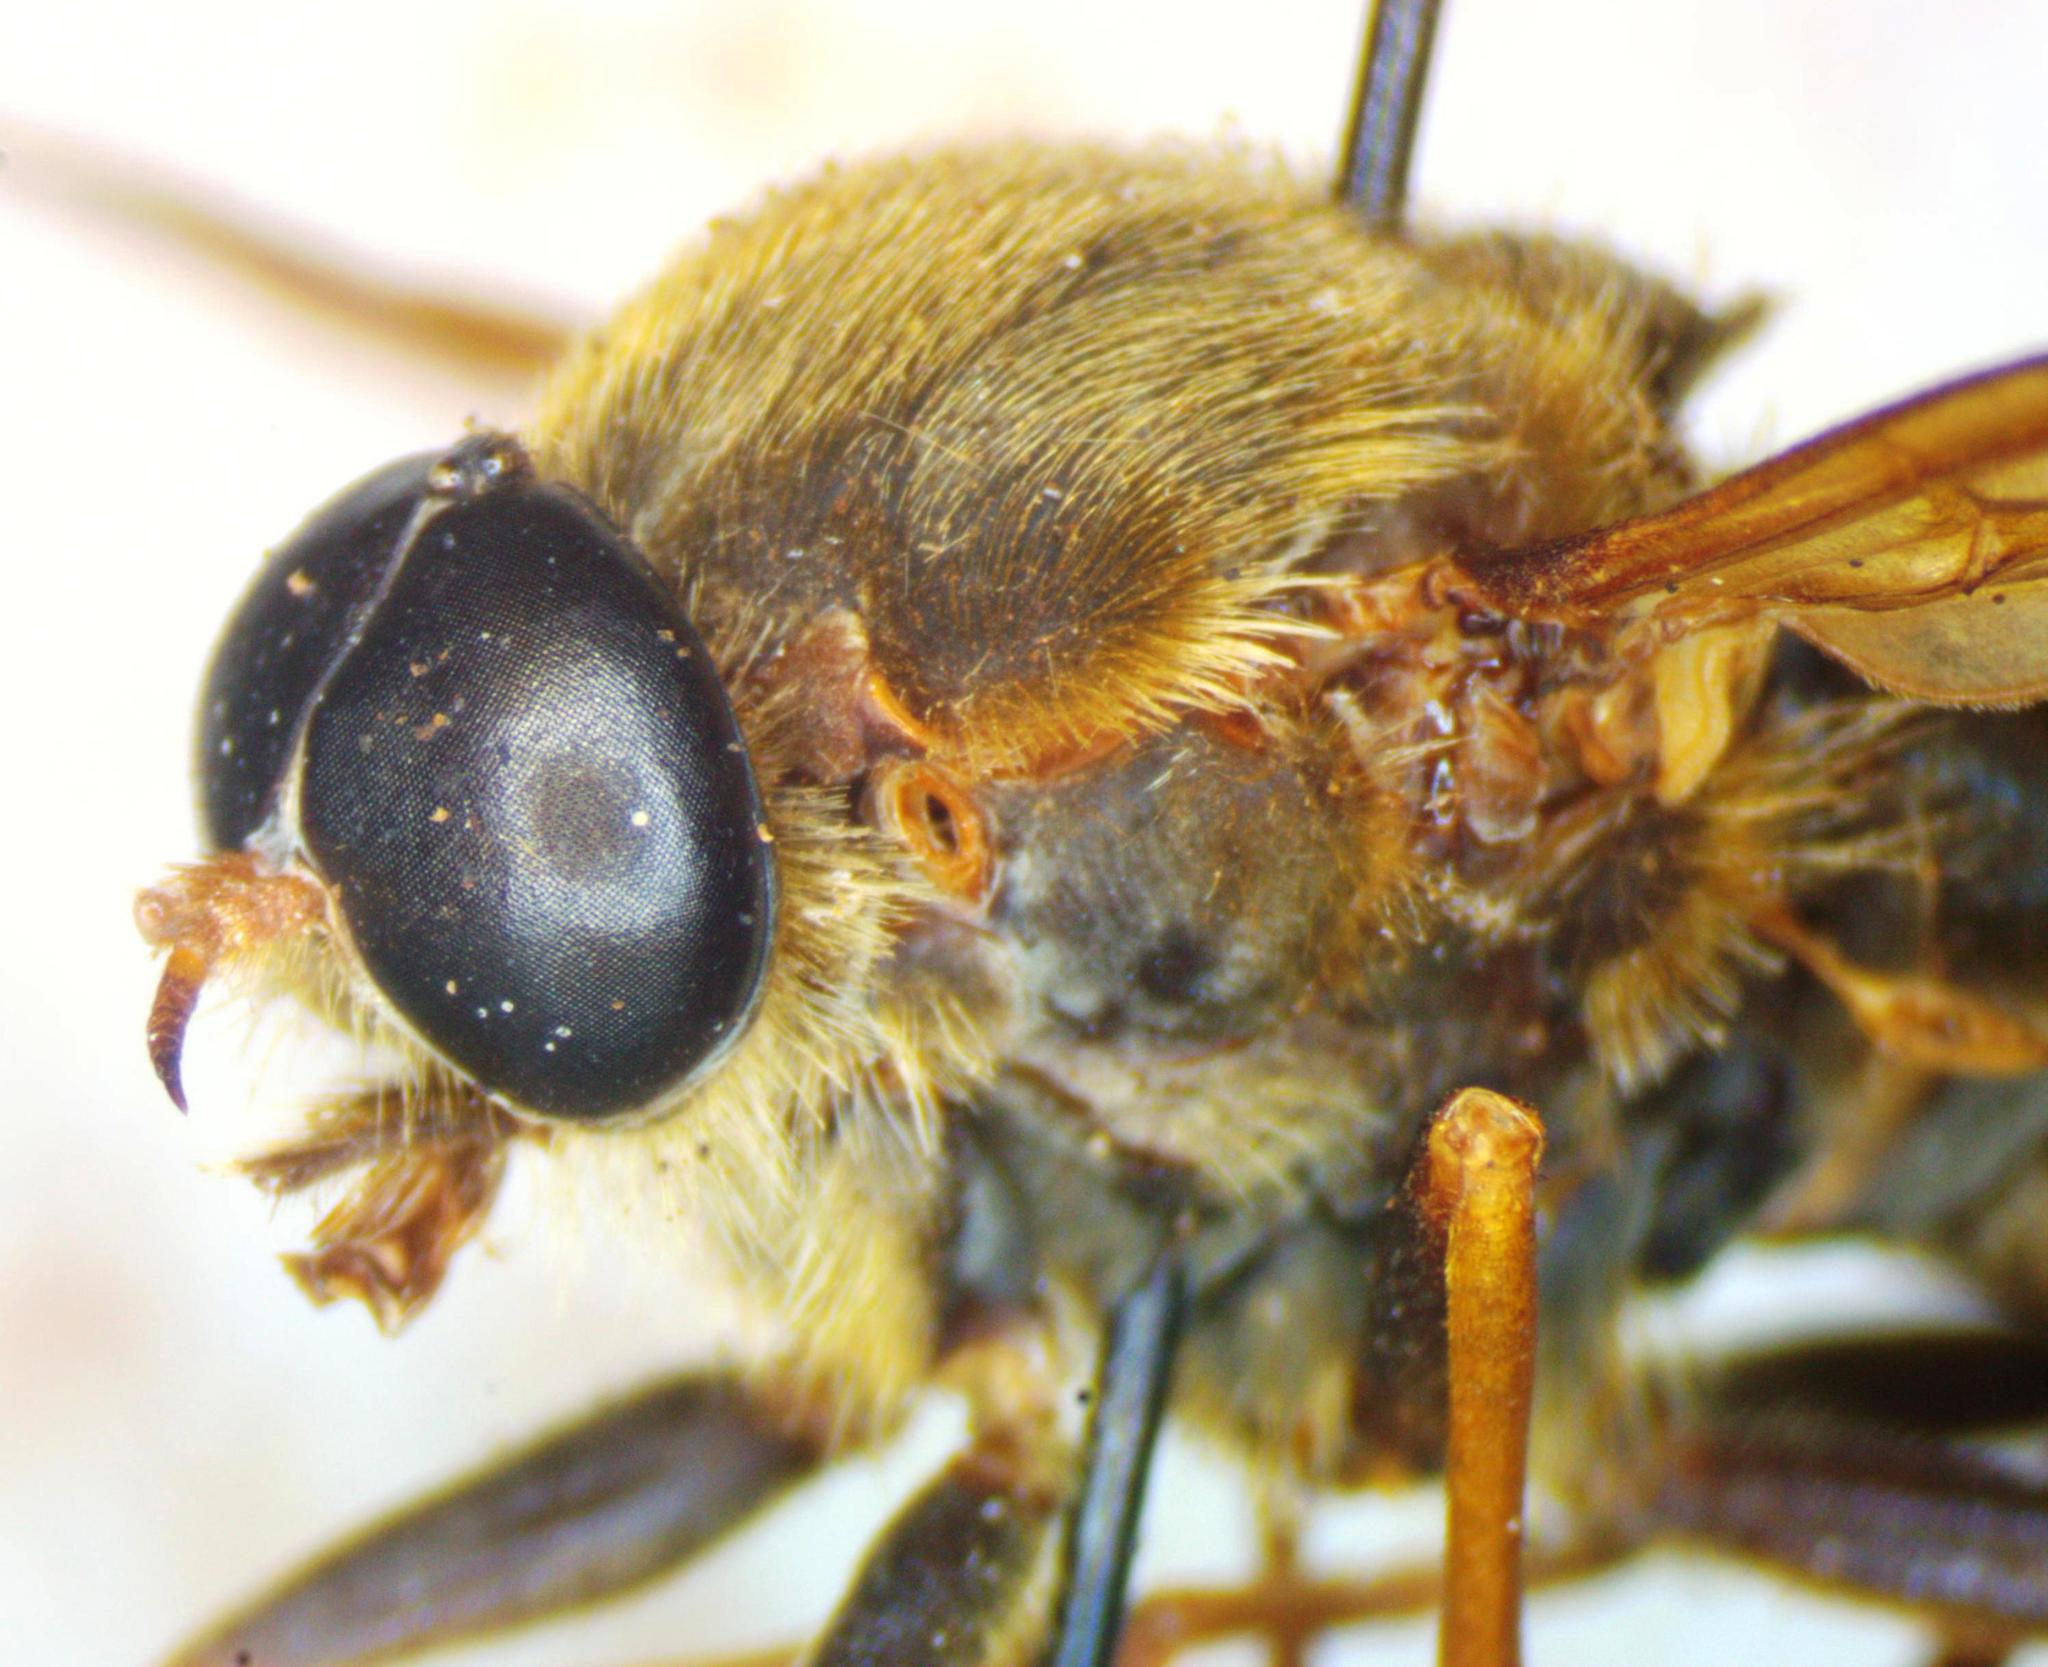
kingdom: Animalia
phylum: Arthropoda
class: Insecta
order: Diptera
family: Xylophagidae
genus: Coenomyia
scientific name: Coenomyia ferruginea
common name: Stink fly
